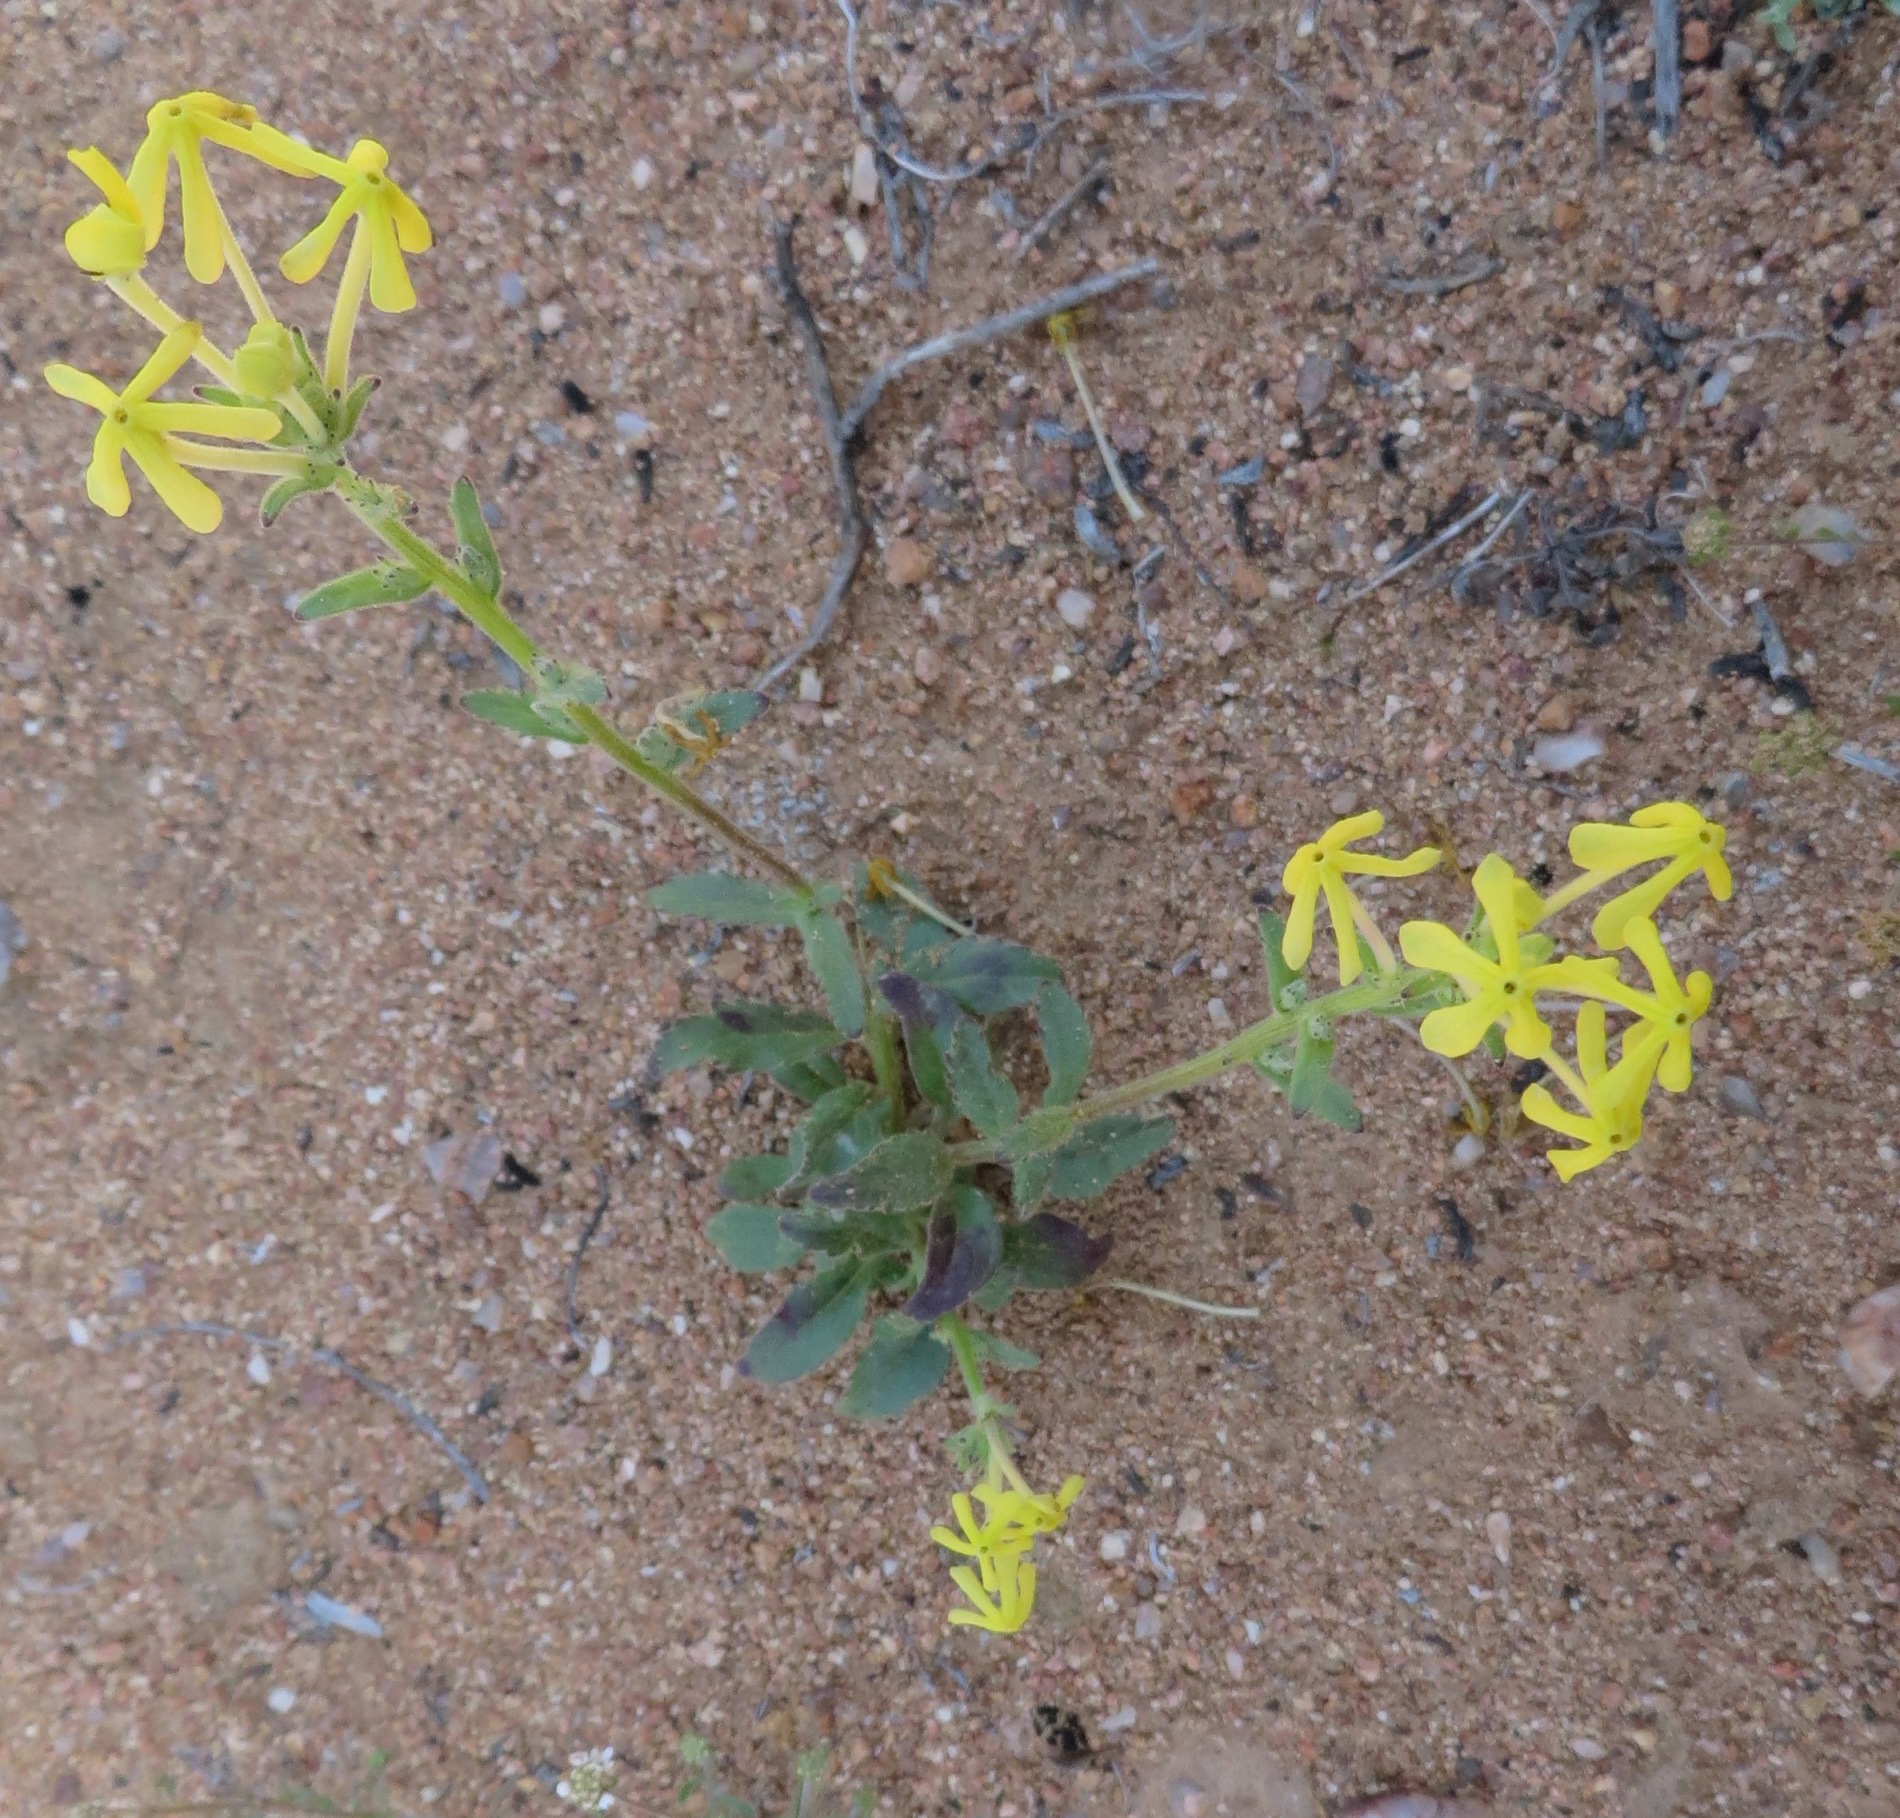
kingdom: Plantae
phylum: Tracheophyta
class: Magnoliopsida
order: Lamiales
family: Scrophulariaceae
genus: Lyperia
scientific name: Lyperia tristis
